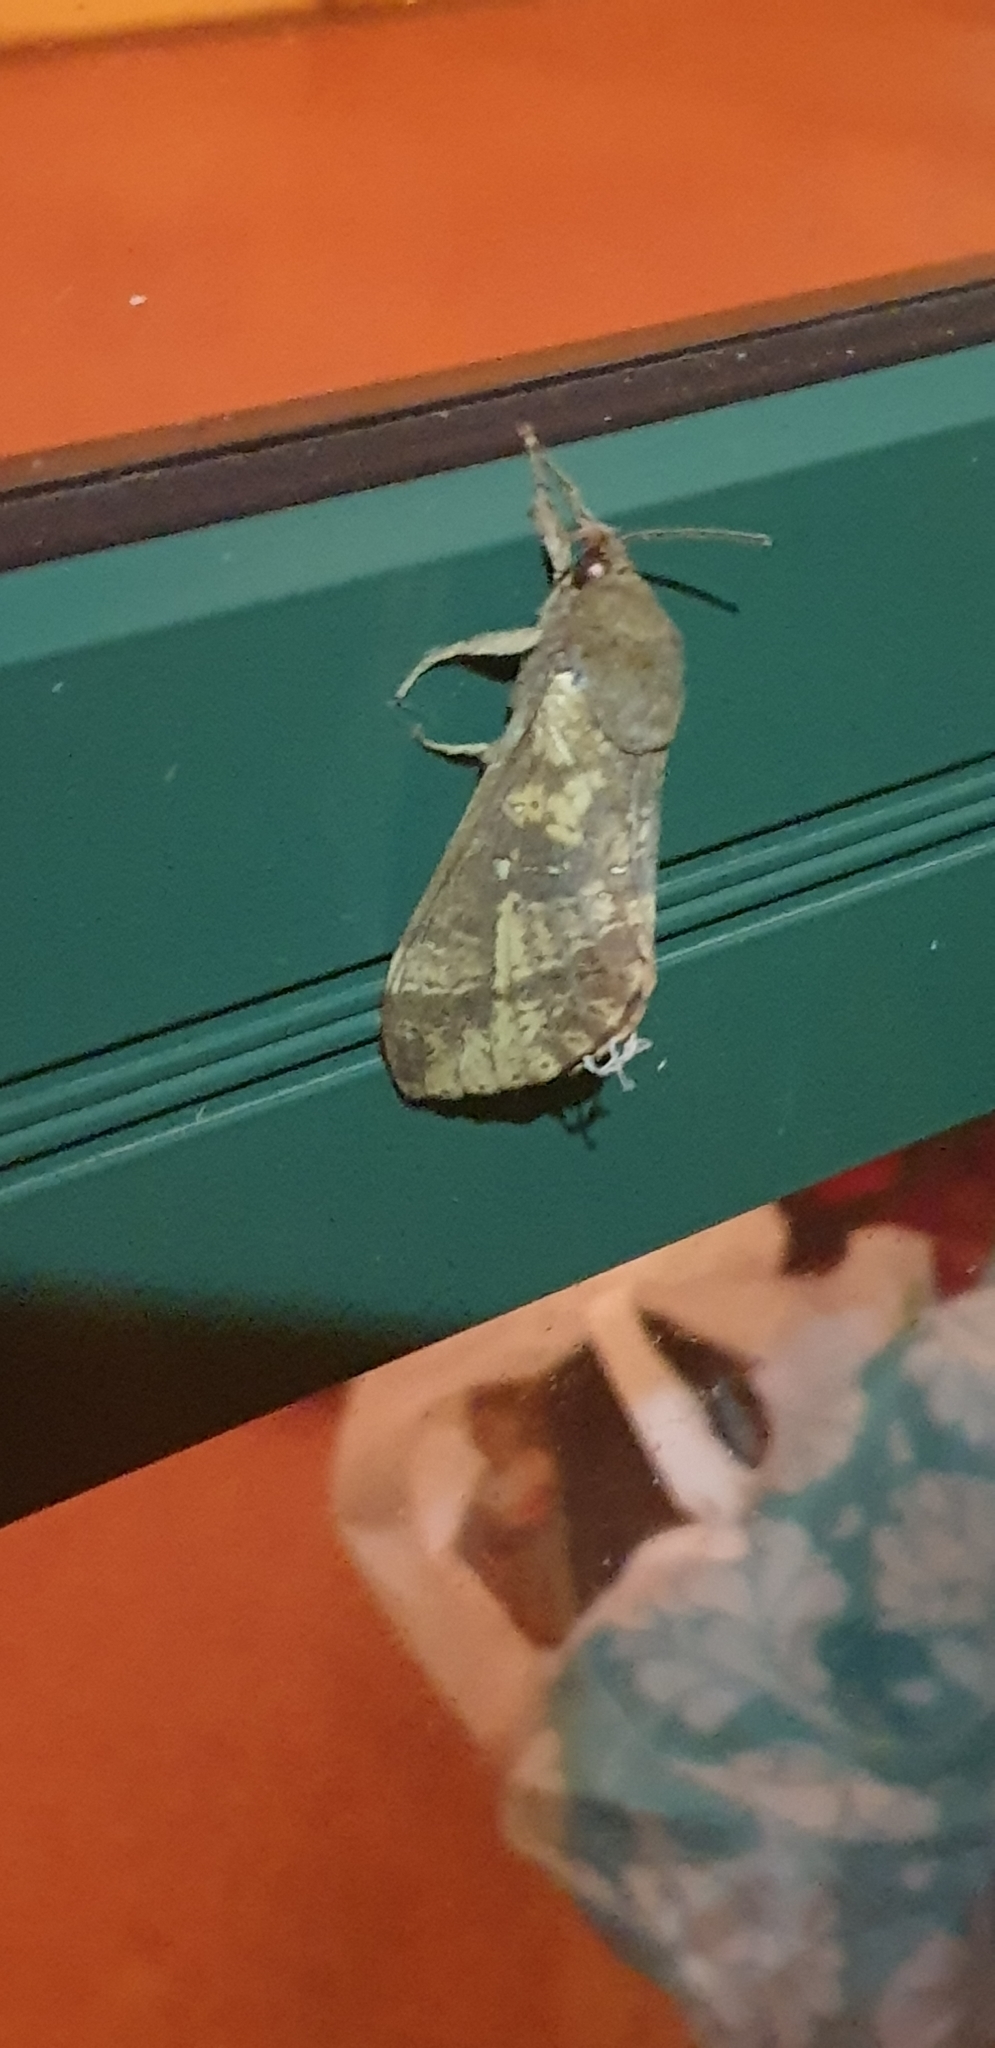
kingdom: Animalia
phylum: Arthropoda
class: Insecta
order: Lepidoptera
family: Hepialidae
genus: Oxycanus
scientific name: Oxycanus beltista
